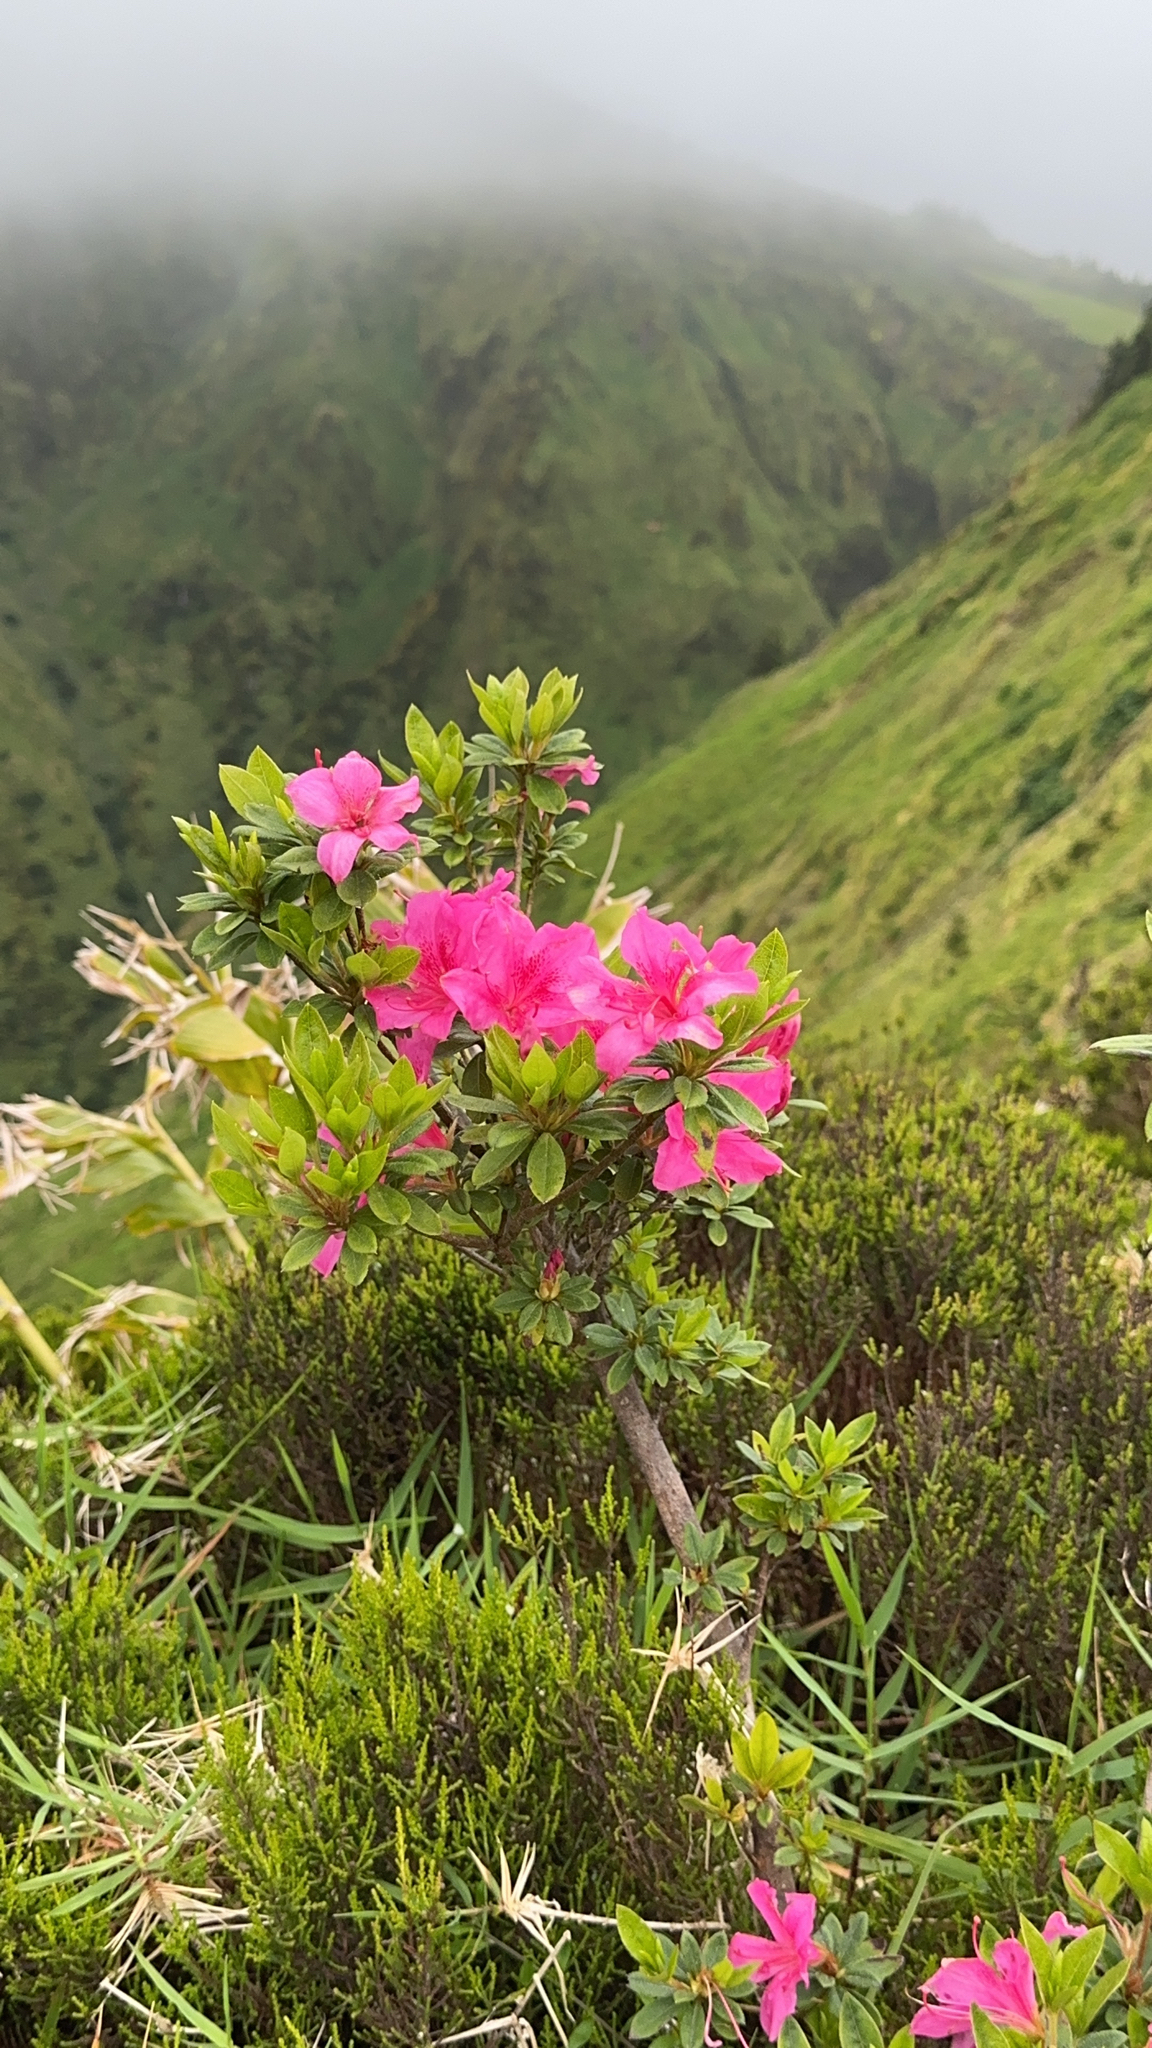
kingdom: Plantae
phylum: Tracheophyta
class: Magnoliopsida
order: Ericales
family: Ericaceae
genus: Rhododendron
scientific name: Rhododendron indicum
